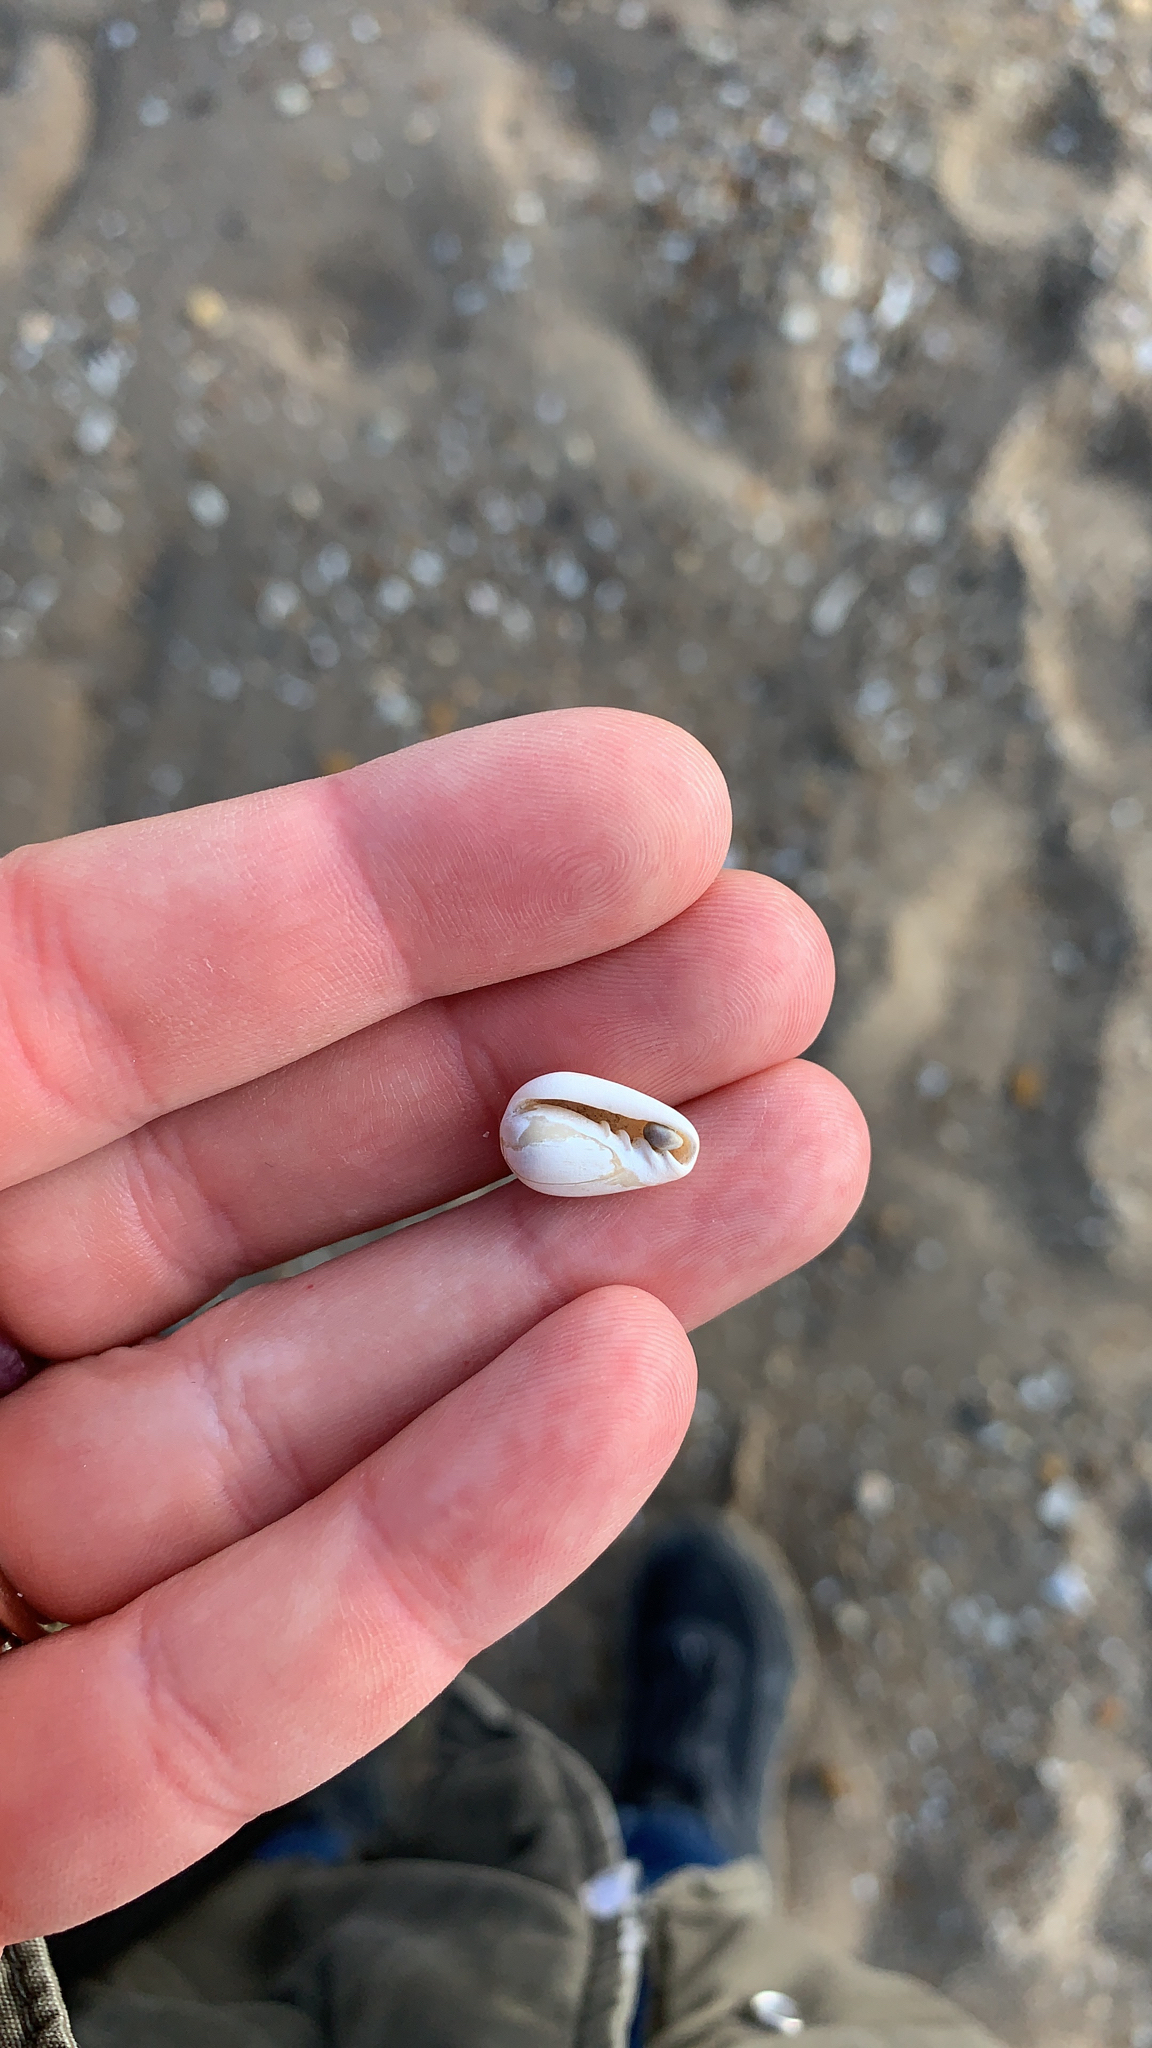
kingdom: Animalia
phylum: Mollusca
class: Gastropoda
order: Neogastropoda
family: Marginellidae
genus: Prunum
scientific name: Prunum roscidum
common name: Seaboard marginella
